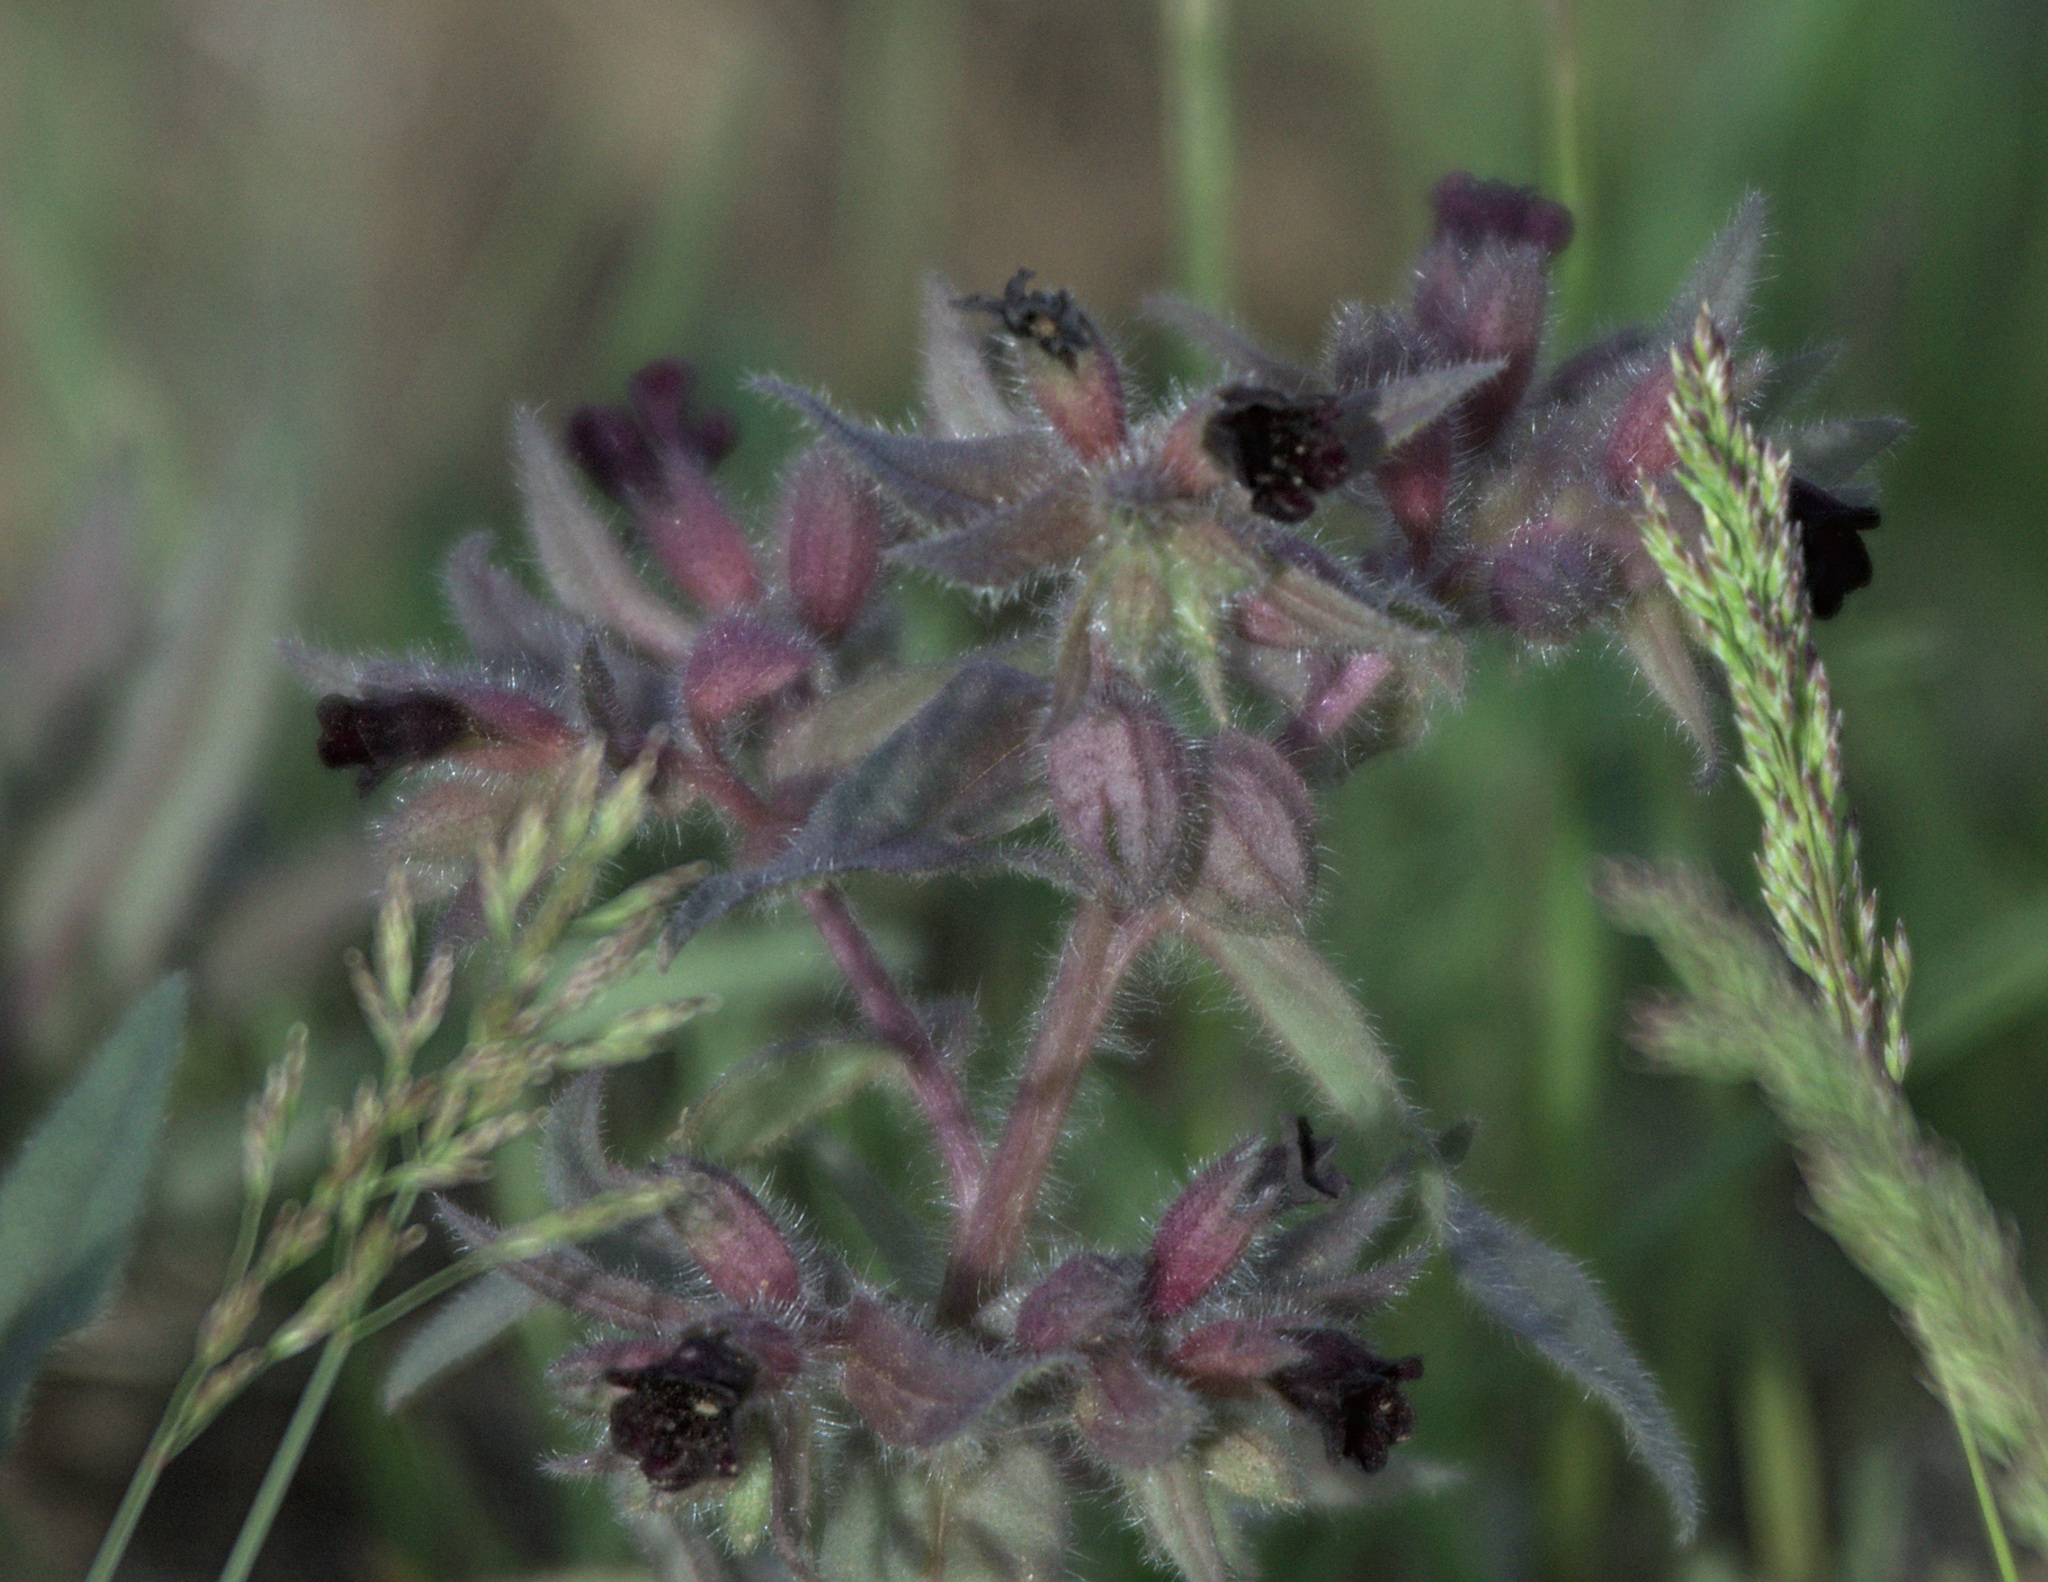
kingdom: Plantae
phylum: Tracheophyta
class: Magnoliopsida
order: Boraginales
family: Boraginaceae
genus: Nonea
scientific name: Nonea pulla
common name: Brown nonea
